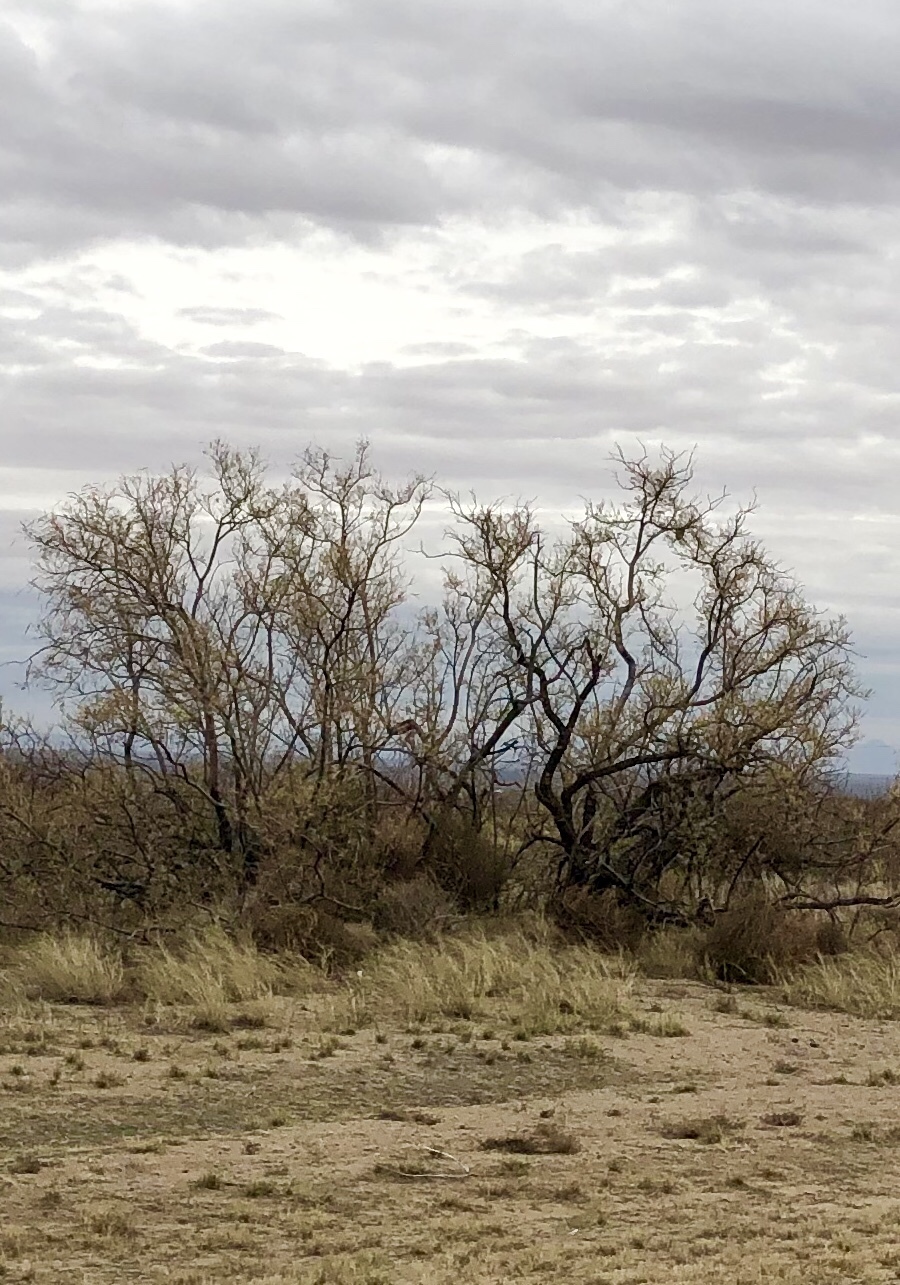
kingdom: Plantae
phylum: Tracheophyta
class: Magnoliopsida
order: Lamiales
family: Bignoniaceae
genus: Chilopsis
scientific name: Chilopsis linearis
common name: Desert-willow
